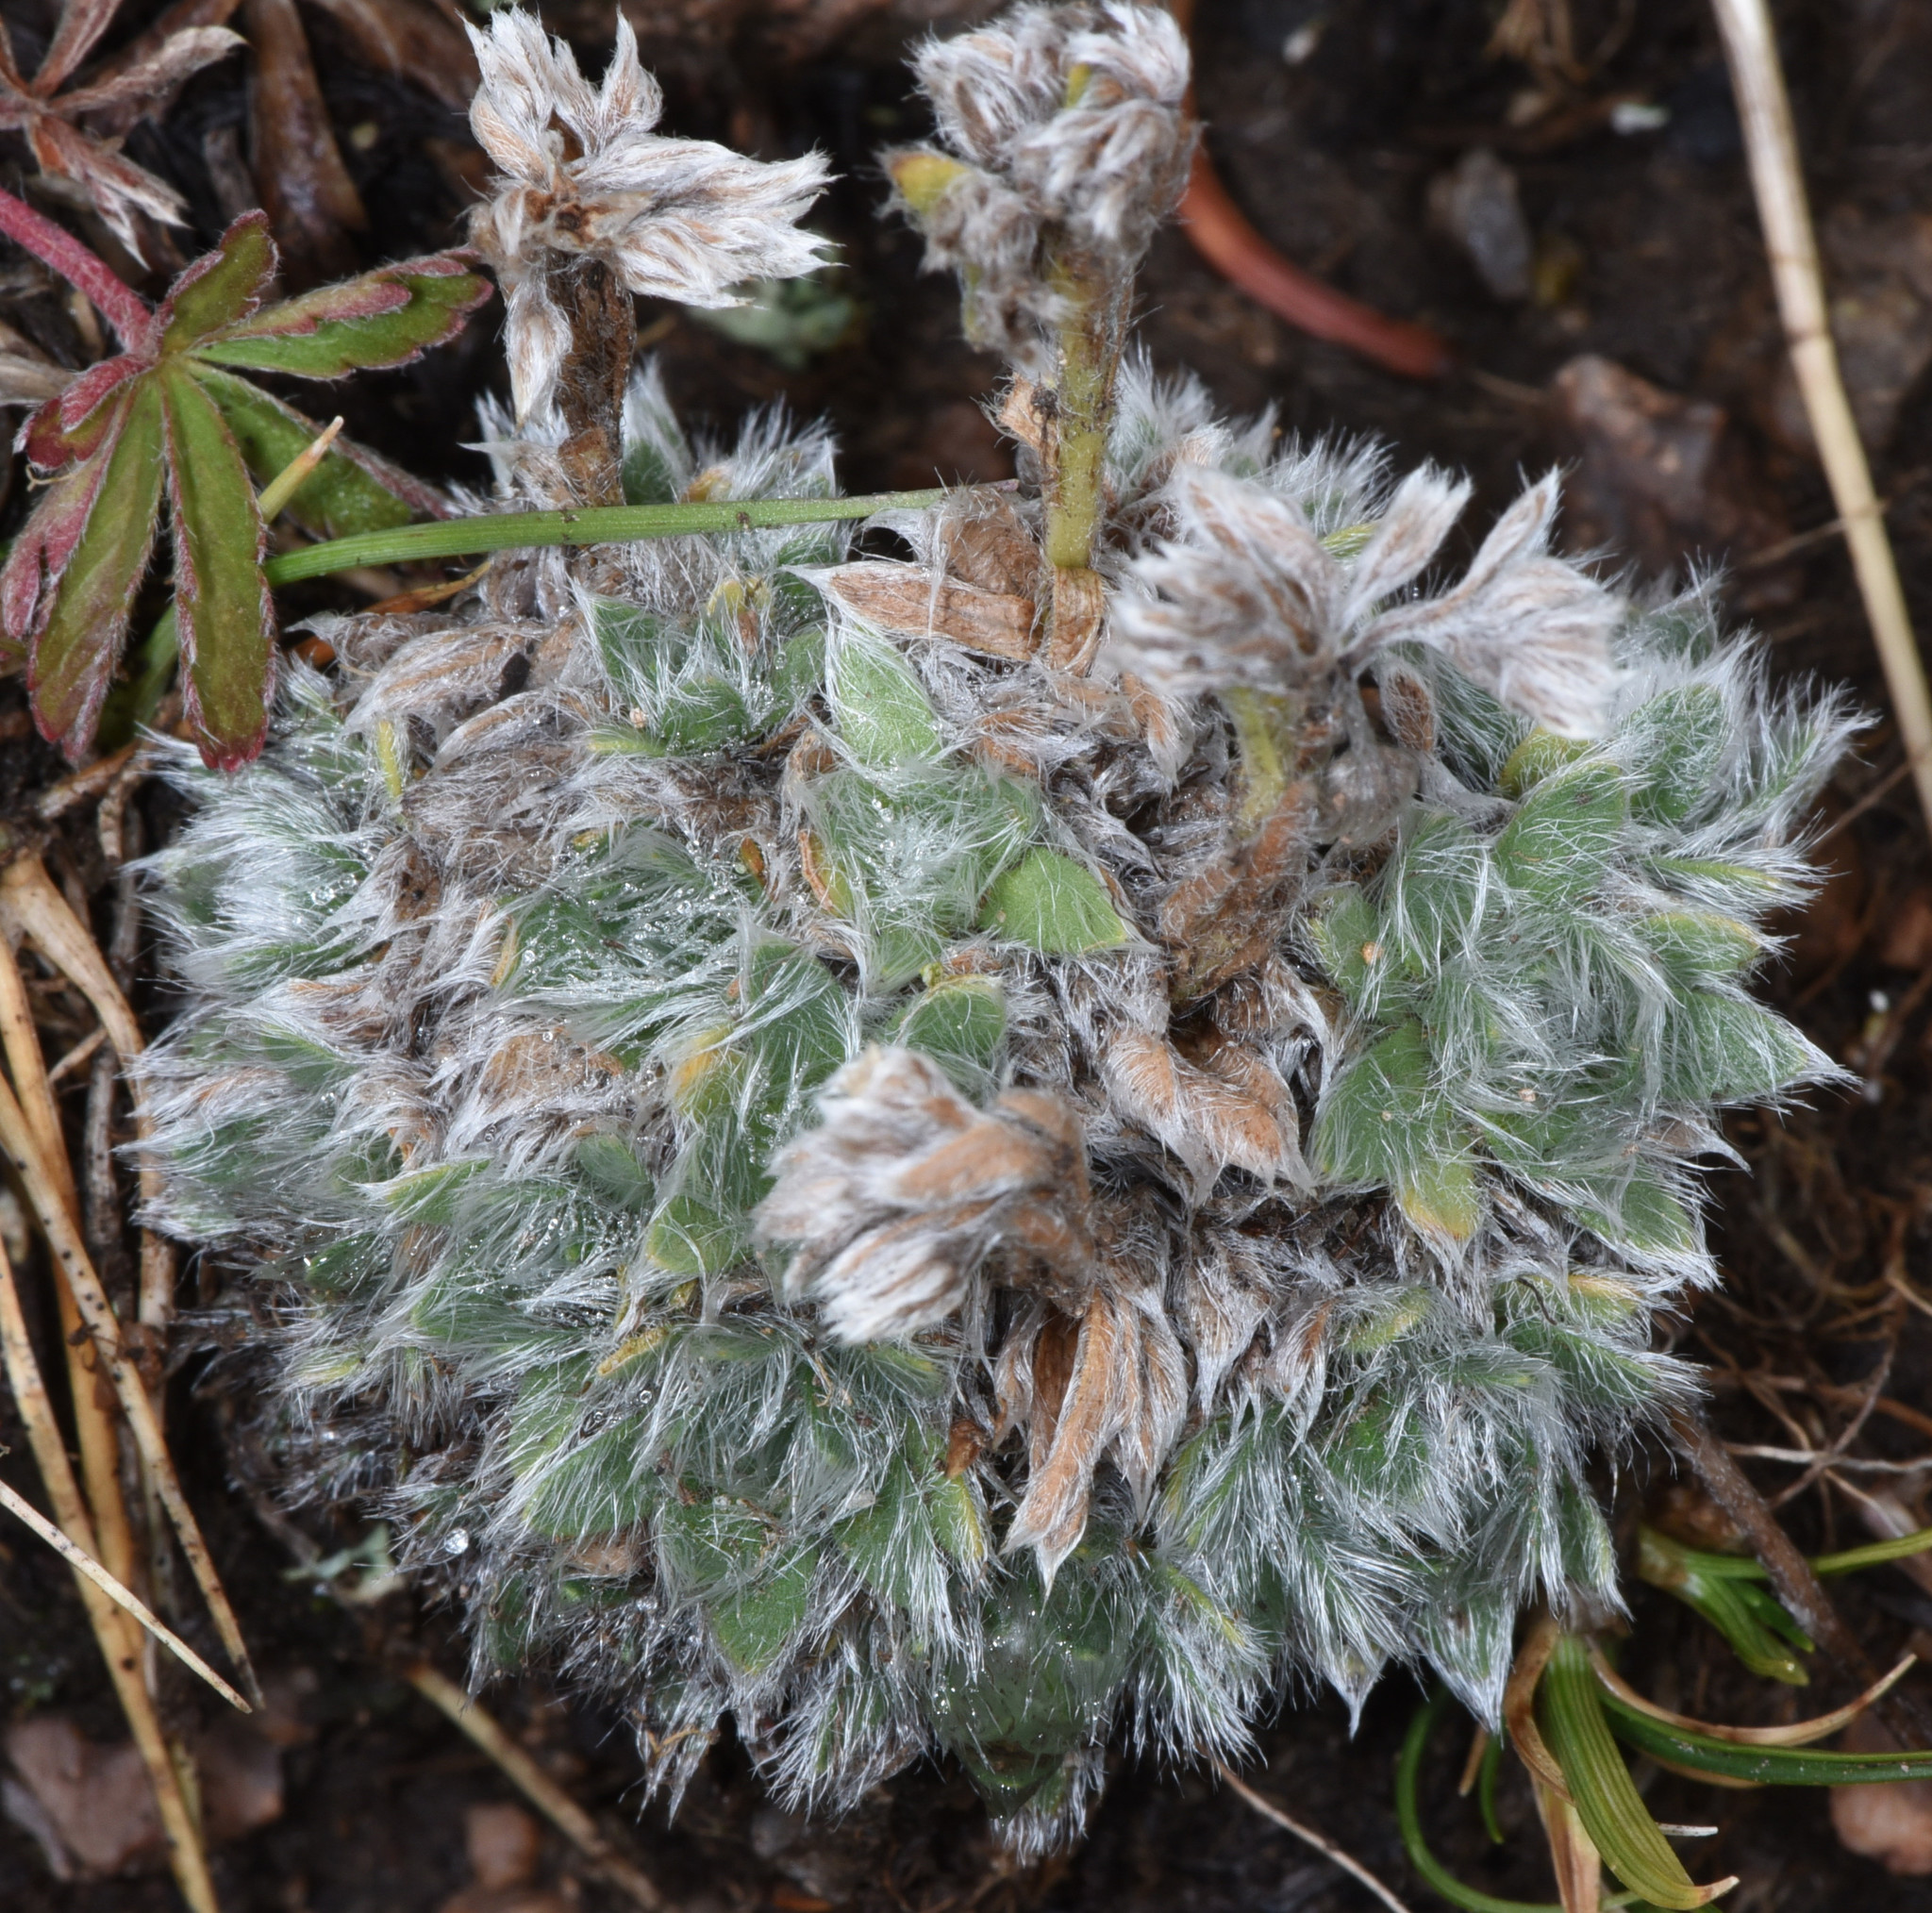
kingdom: Plantae
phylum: Tracheophyta
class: Magnoliopsida
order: Boraginales
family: Boraginaceae
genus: Eritrichium
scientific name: Eritrichium argenteum
